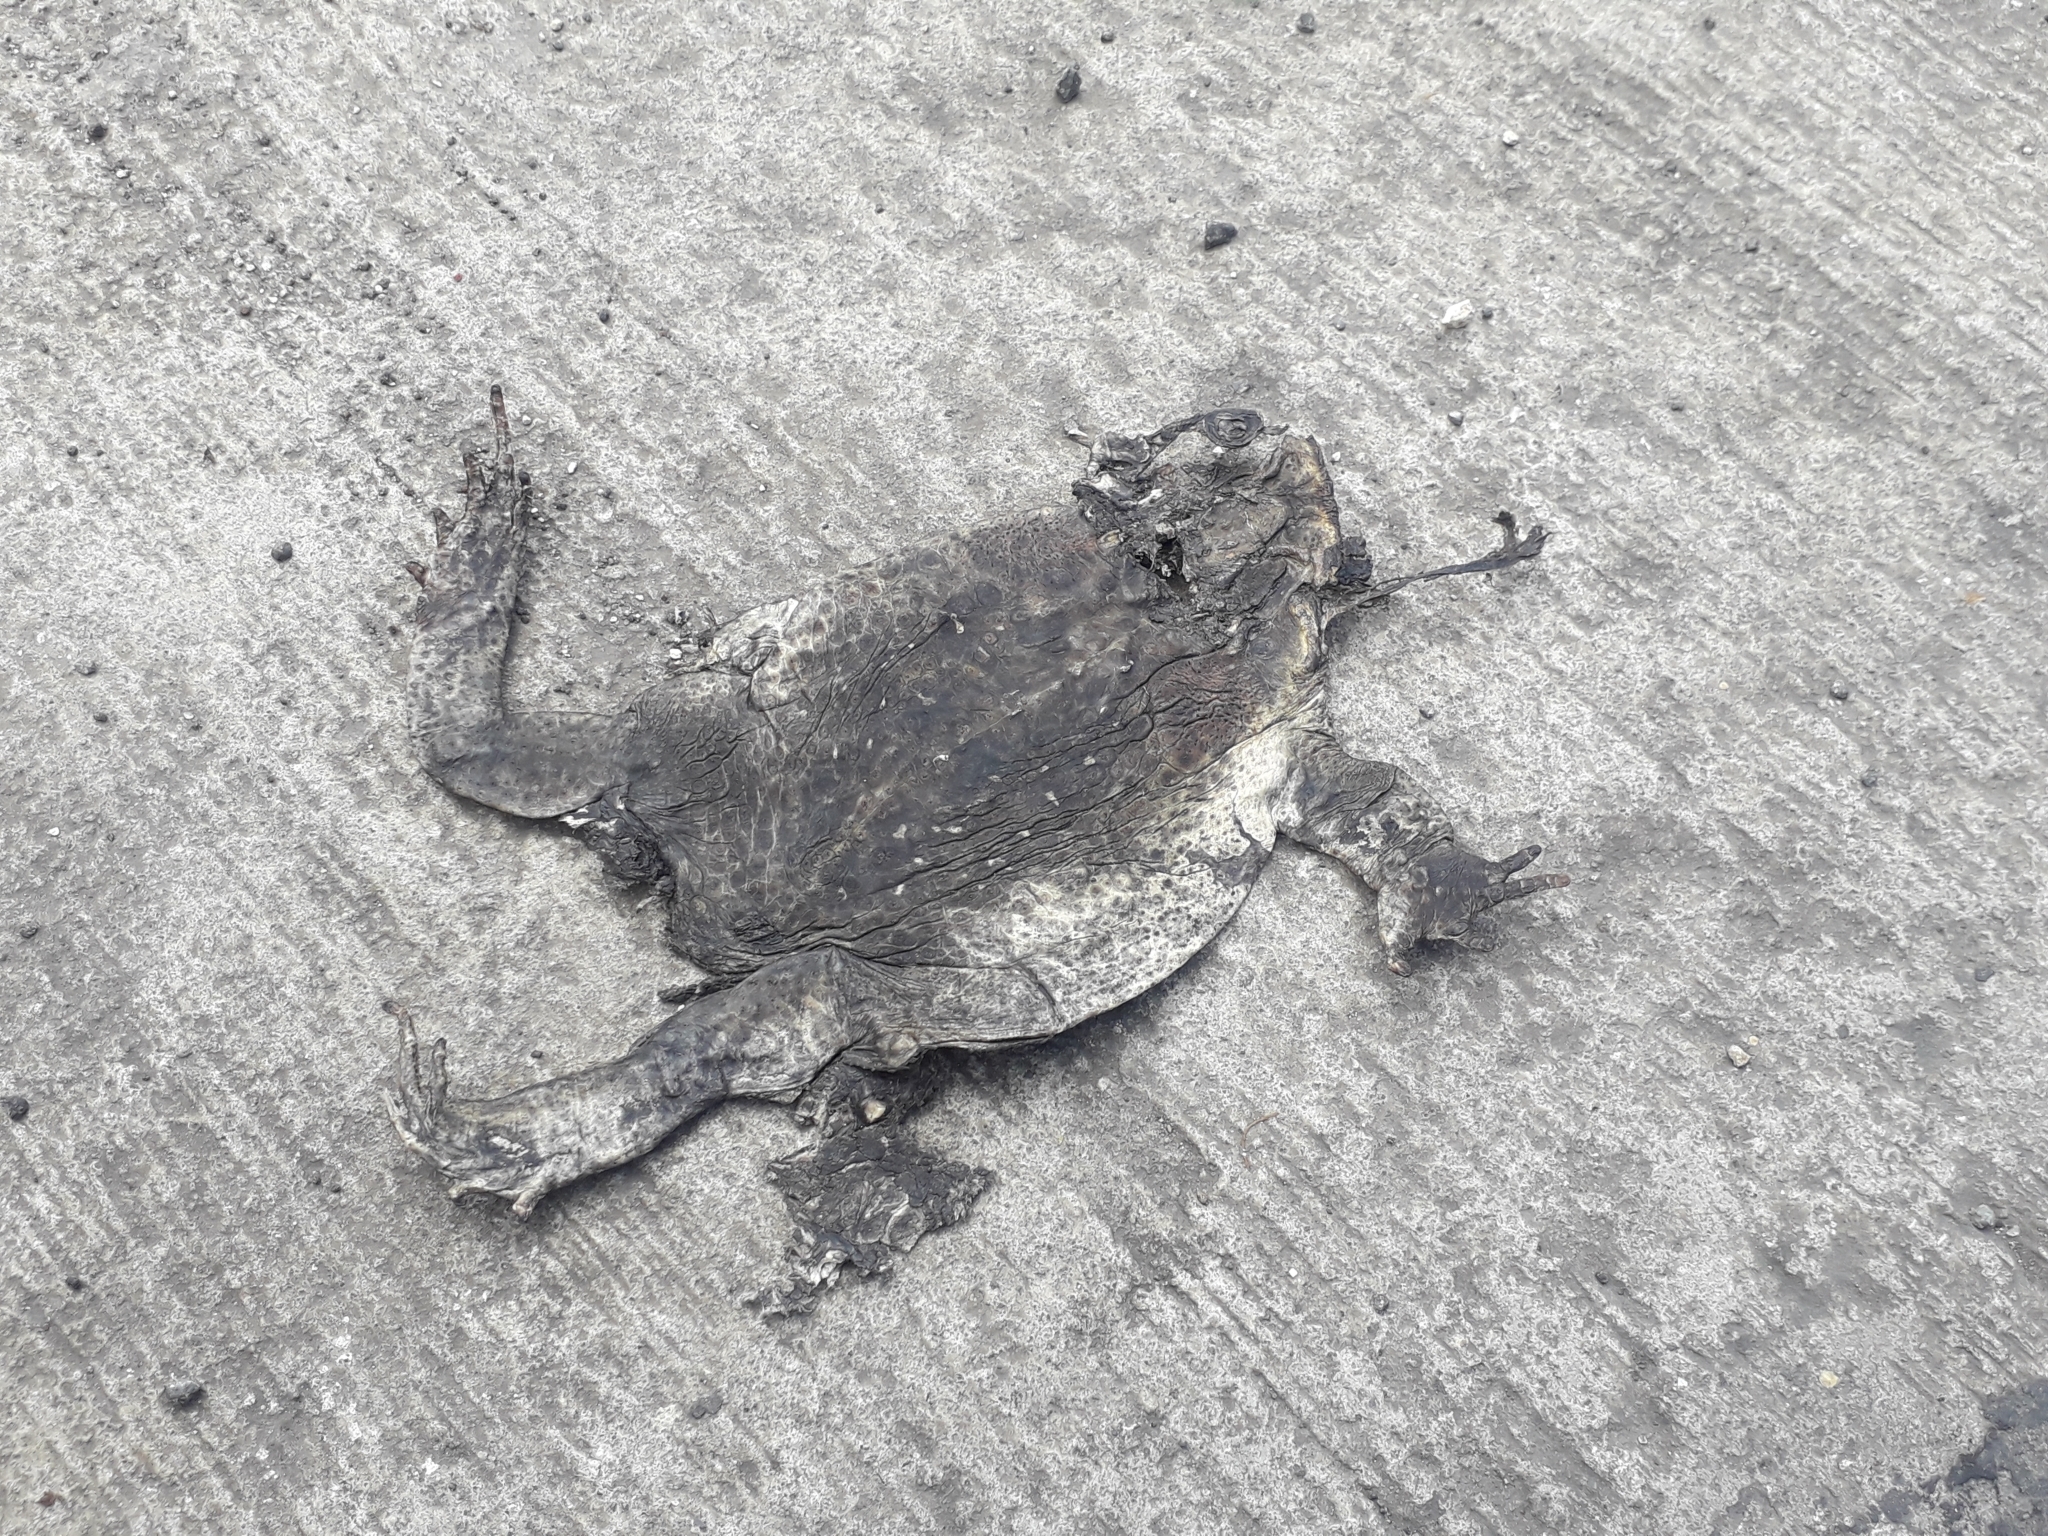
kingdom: Animalia
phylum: Chordata
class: Amphibia
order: Anura
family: Bufonidae
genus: Rhinella
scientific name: Rhinella marina
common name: Cane toad
